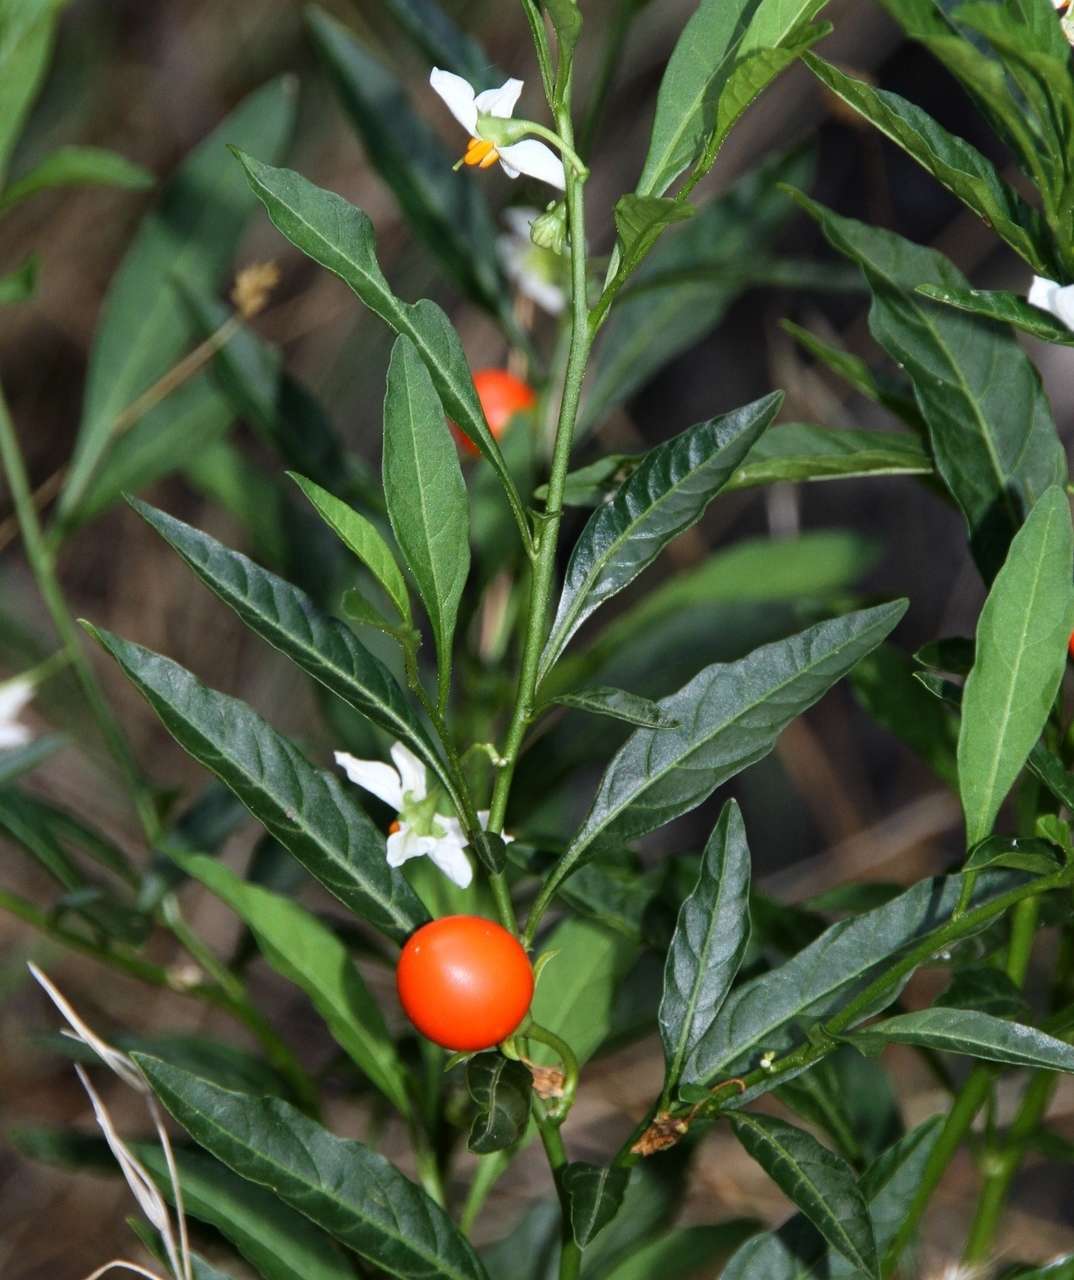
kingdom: Plantae
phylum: Tracheophyta
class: Magnoliopsida
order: Solanales
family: Solanaceae
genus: Solanum
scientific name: Solanum pseudocapsicum
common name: Jerusalem cherry
